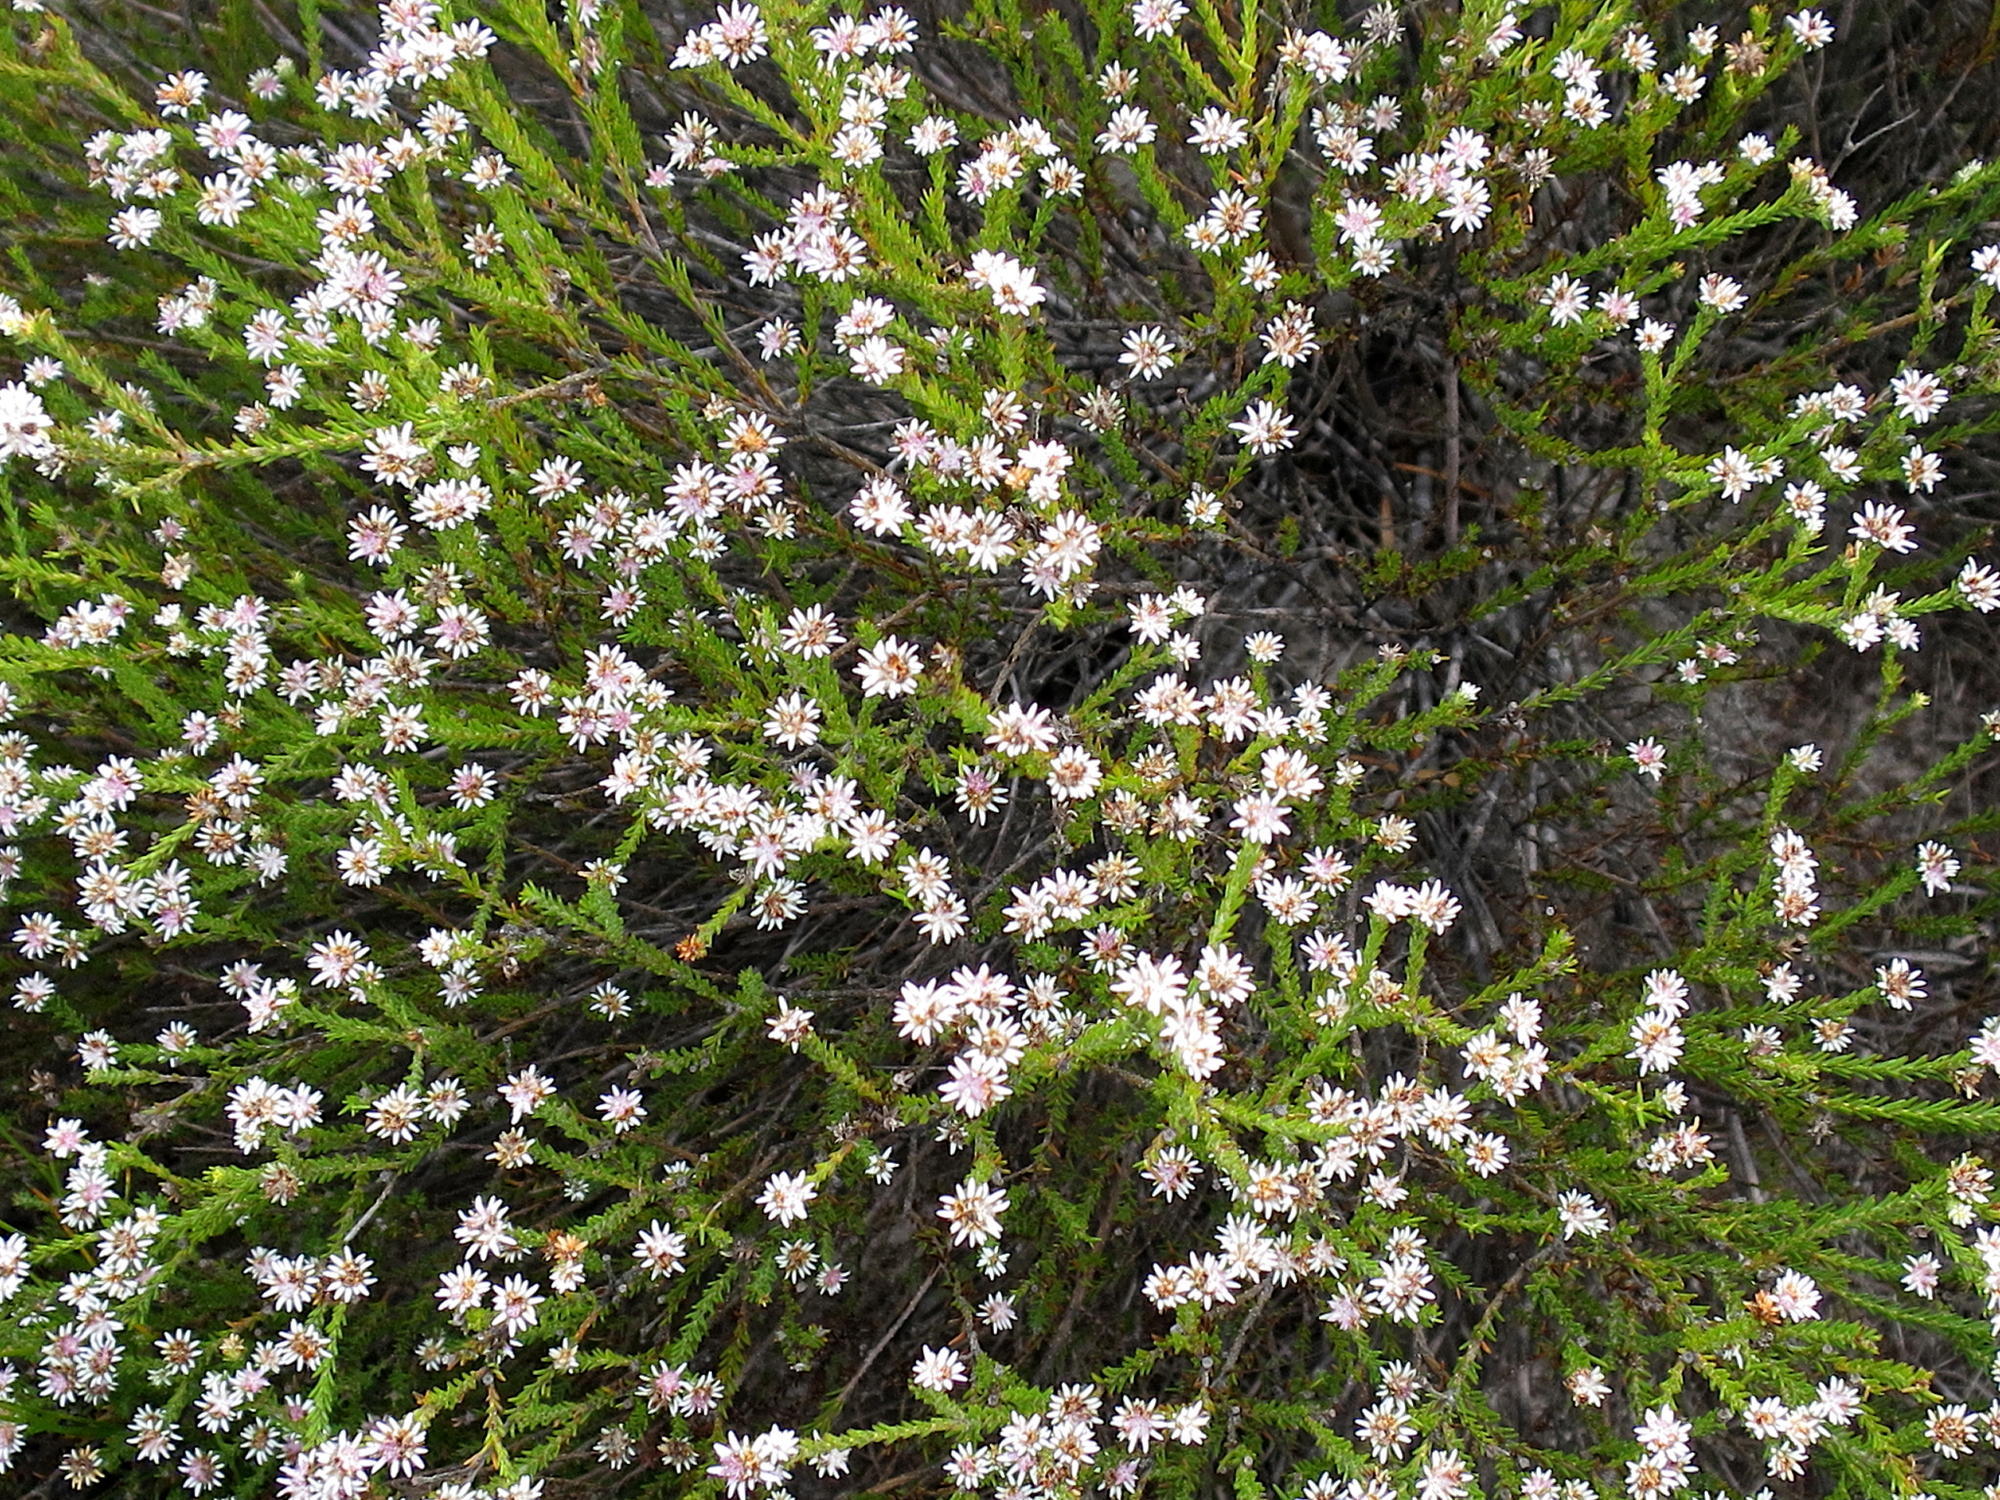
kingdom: Plantae
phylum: Tracheophyta
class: Magnoliopsida
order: Bruniales
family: Bruniaceae
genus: Staavia
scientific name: Staavia radiata
